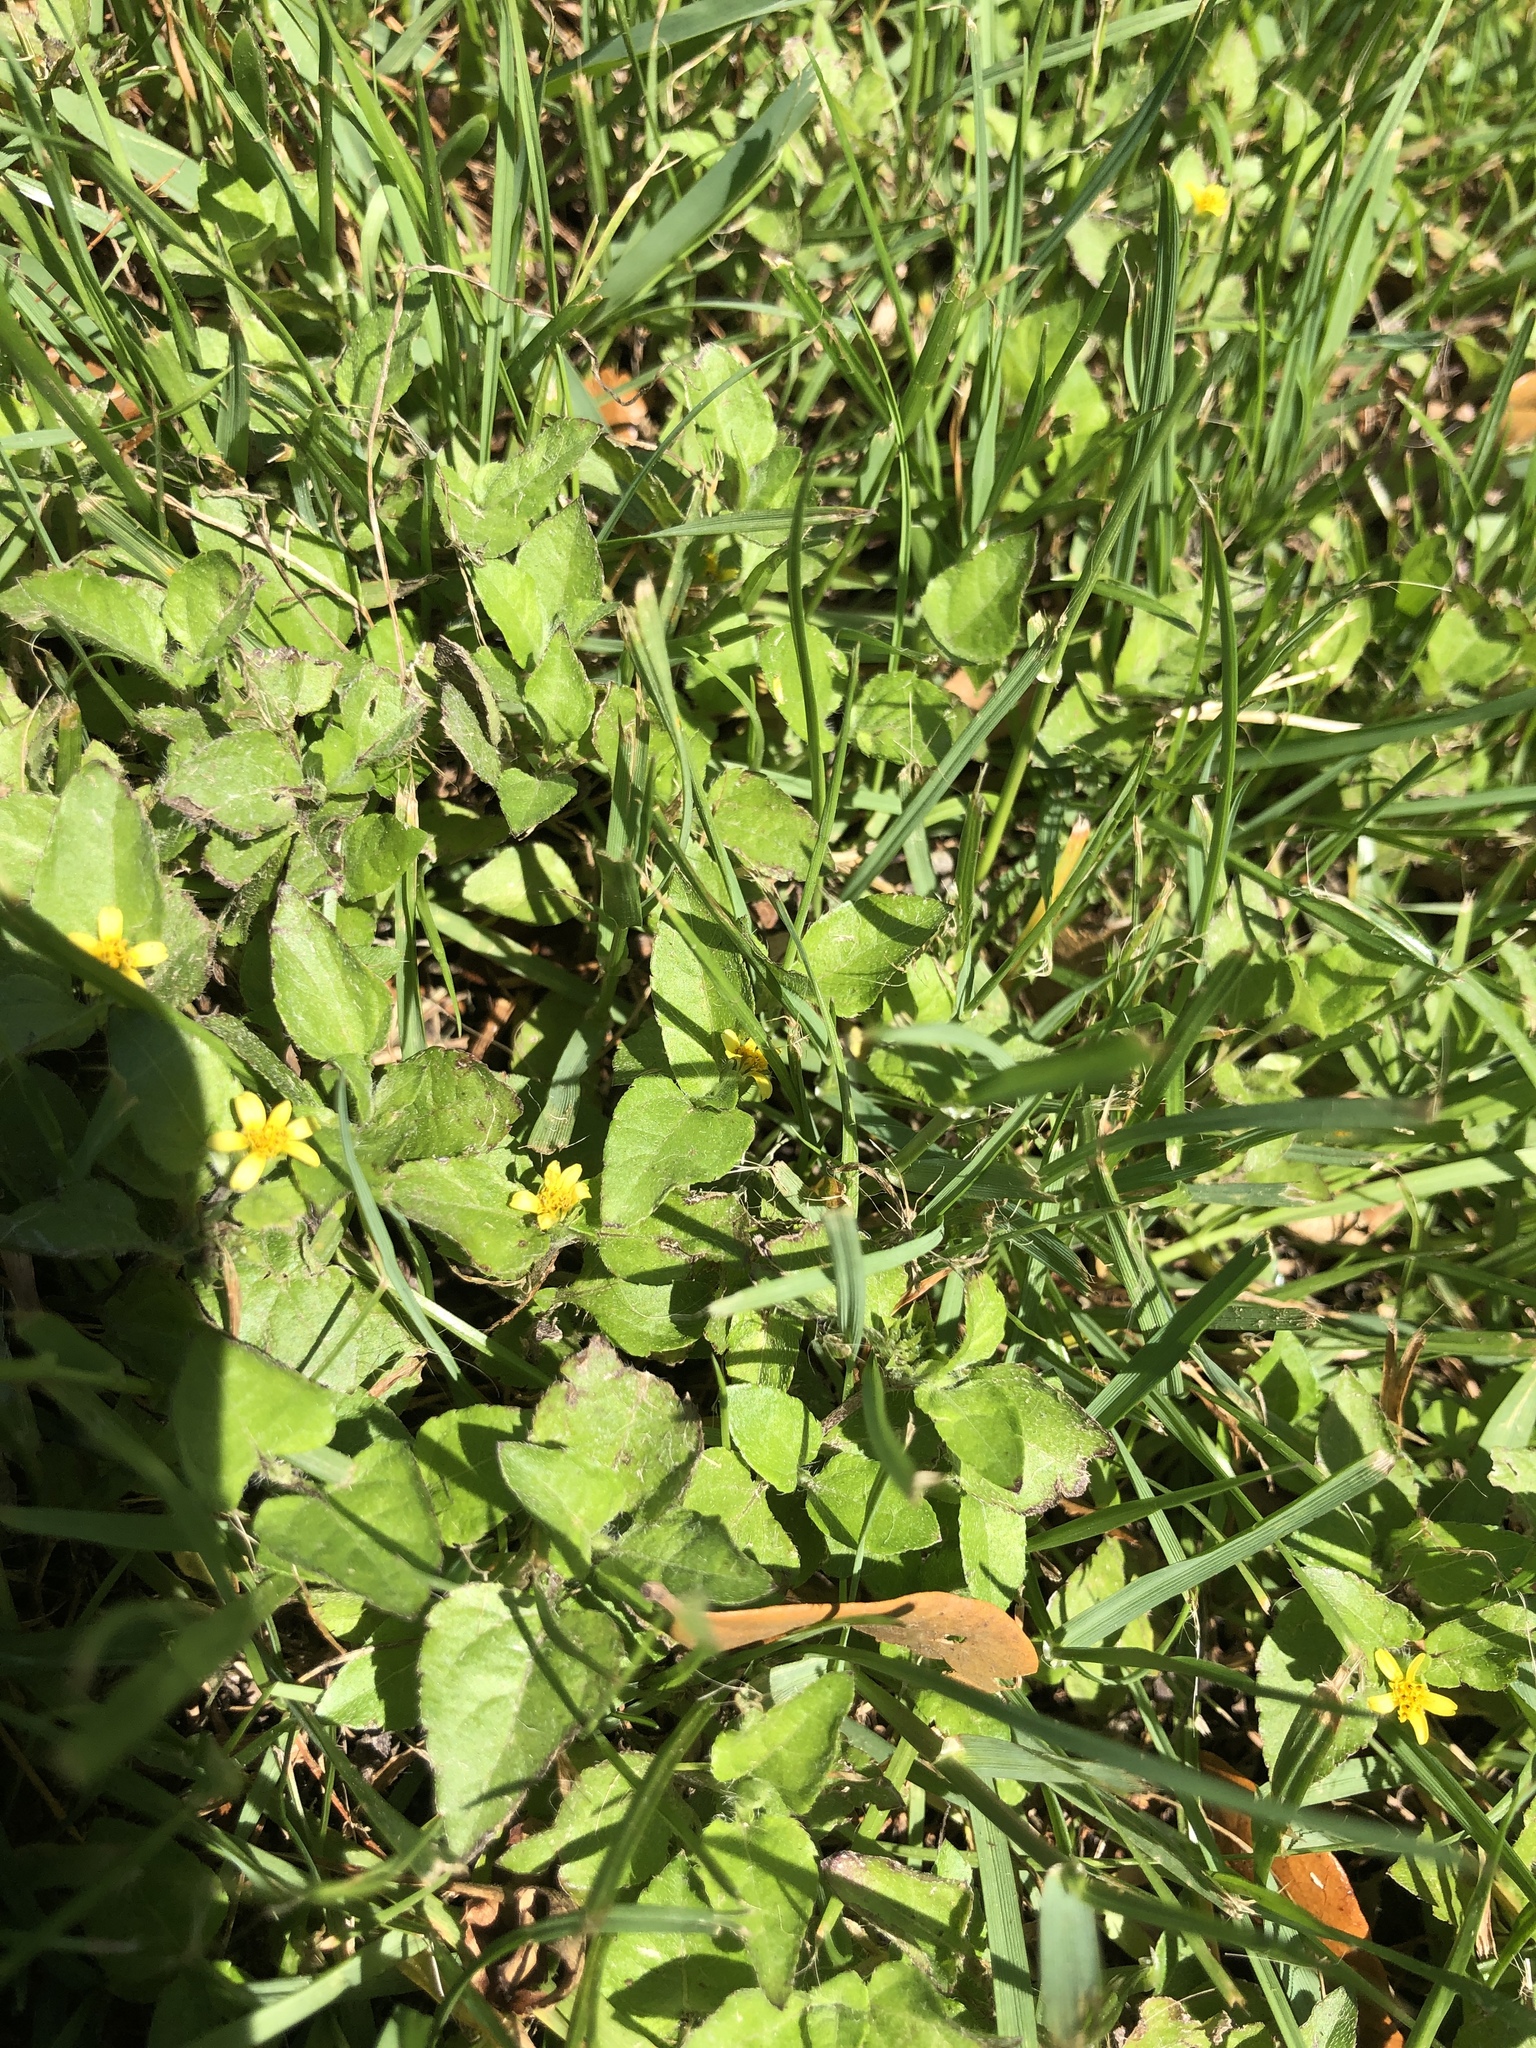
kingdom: Plantae
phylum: Tracheophyta
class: Magnoliopsida
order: Asterales
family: Asteraceae
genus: Calyptocarpus
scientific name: Calyptocarpus vialis
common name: Straggler daisy
